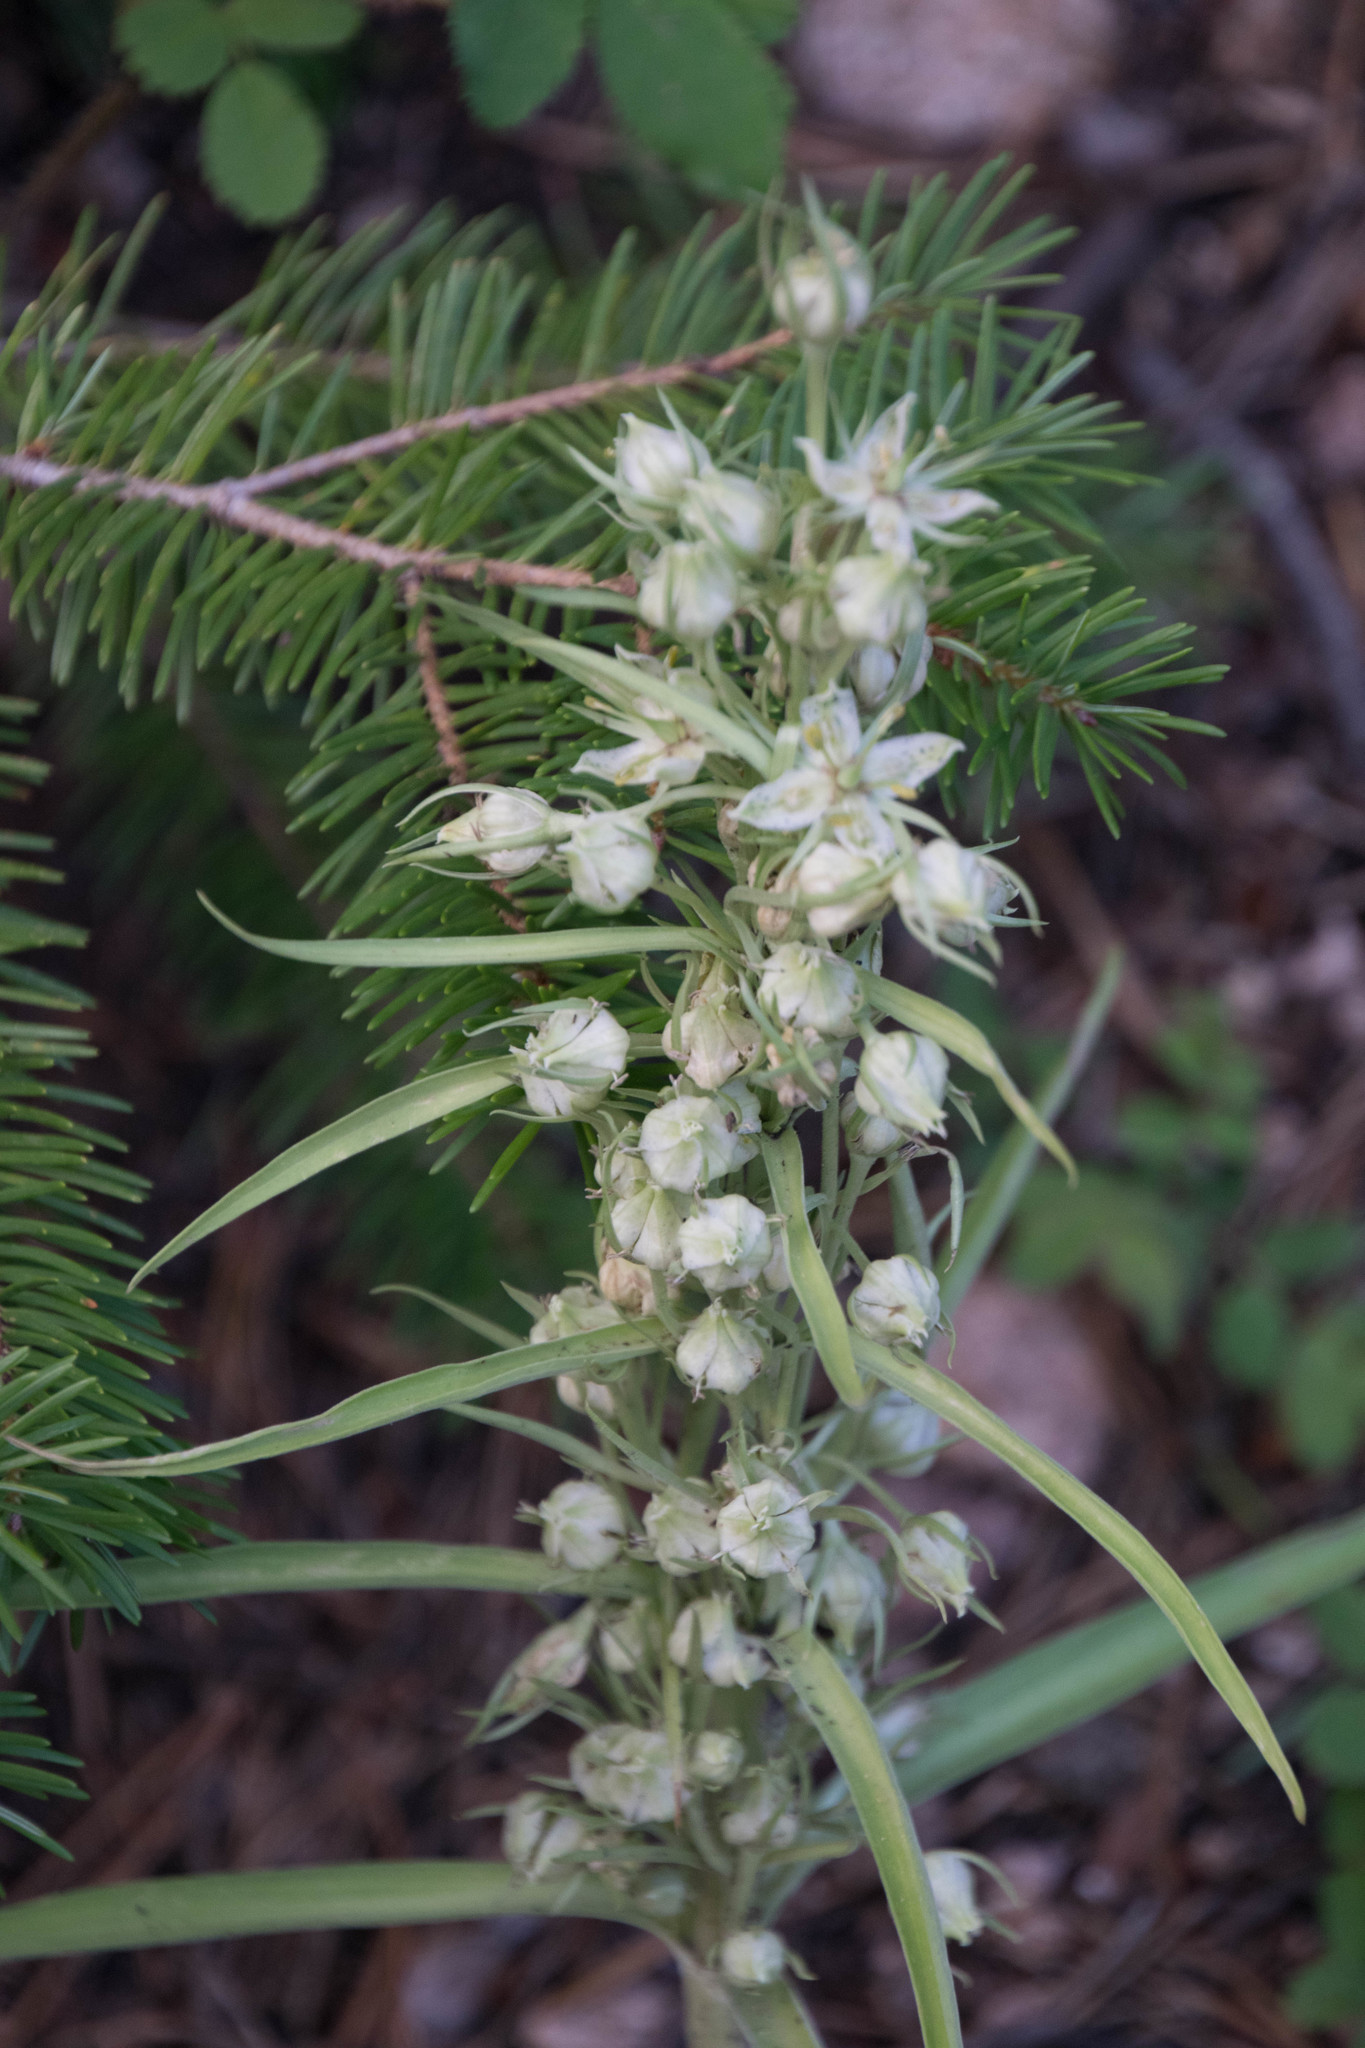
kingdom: Plantae
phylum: Tracheophyta
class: Magnoliopsida
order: Gentianales
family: Gentianaceae
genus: Frasera
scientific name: Frasera speciosa
